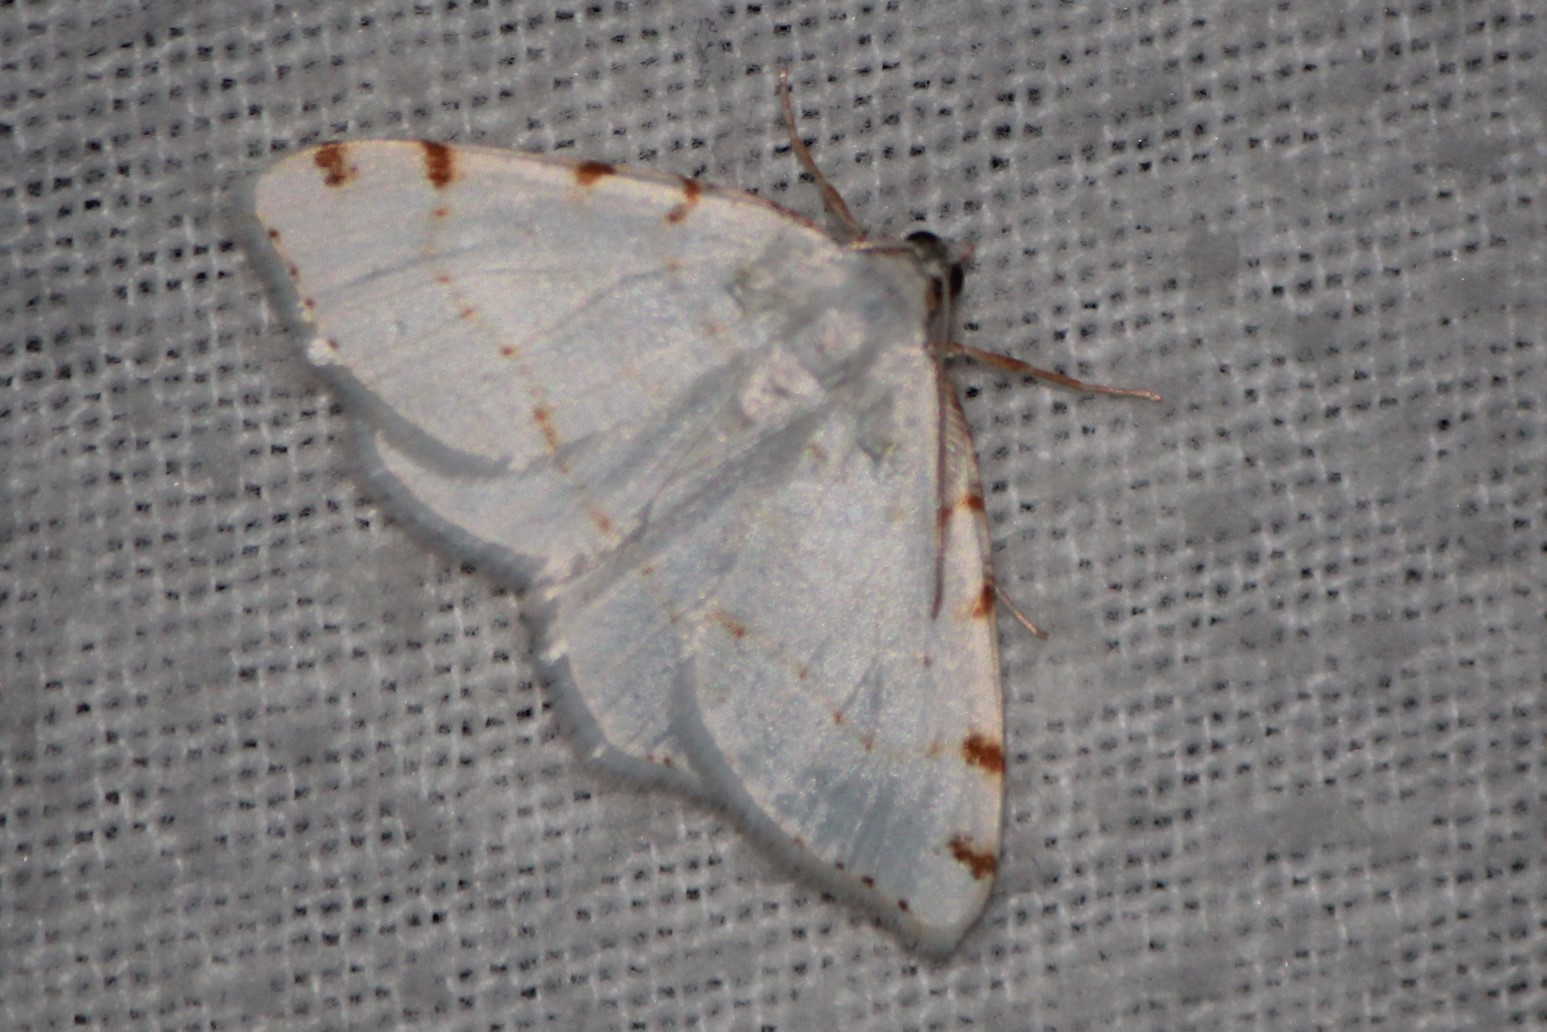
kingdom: Animalia
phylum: Arthropoda
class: Insecta
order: Lepidoptera
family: Geometridae
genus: Macaria
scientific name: Macaria pustularia
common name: Lesser maple spanworm moth
